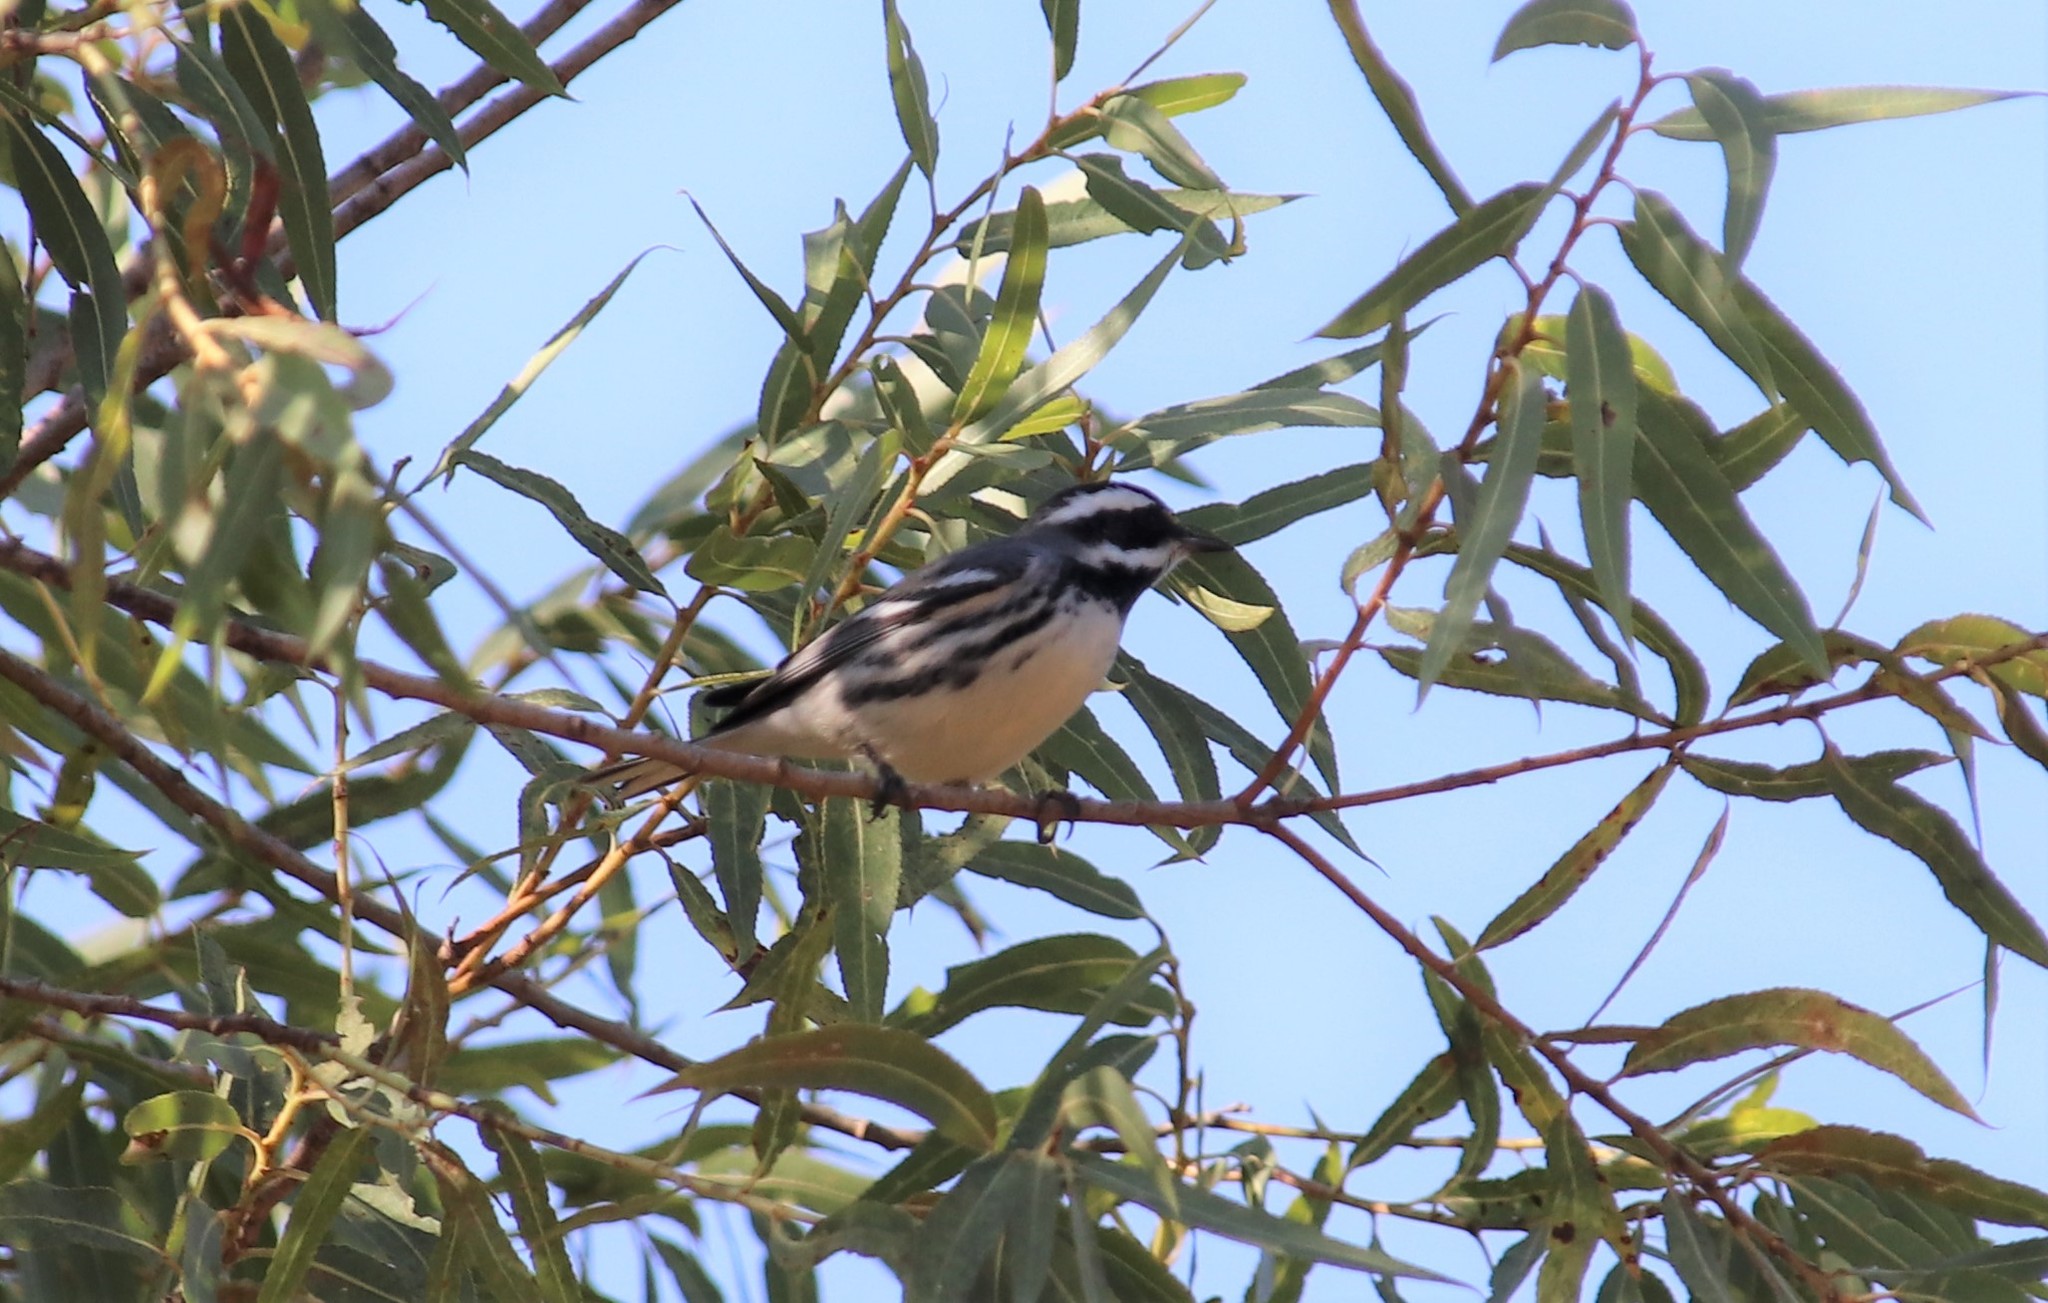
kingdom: Animalia
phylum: Chordata
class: Aves
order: Passeriformes
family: Parulidae
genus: Setophaga
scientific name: Setophaga nigrescens
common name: Black-throated gray warbler
